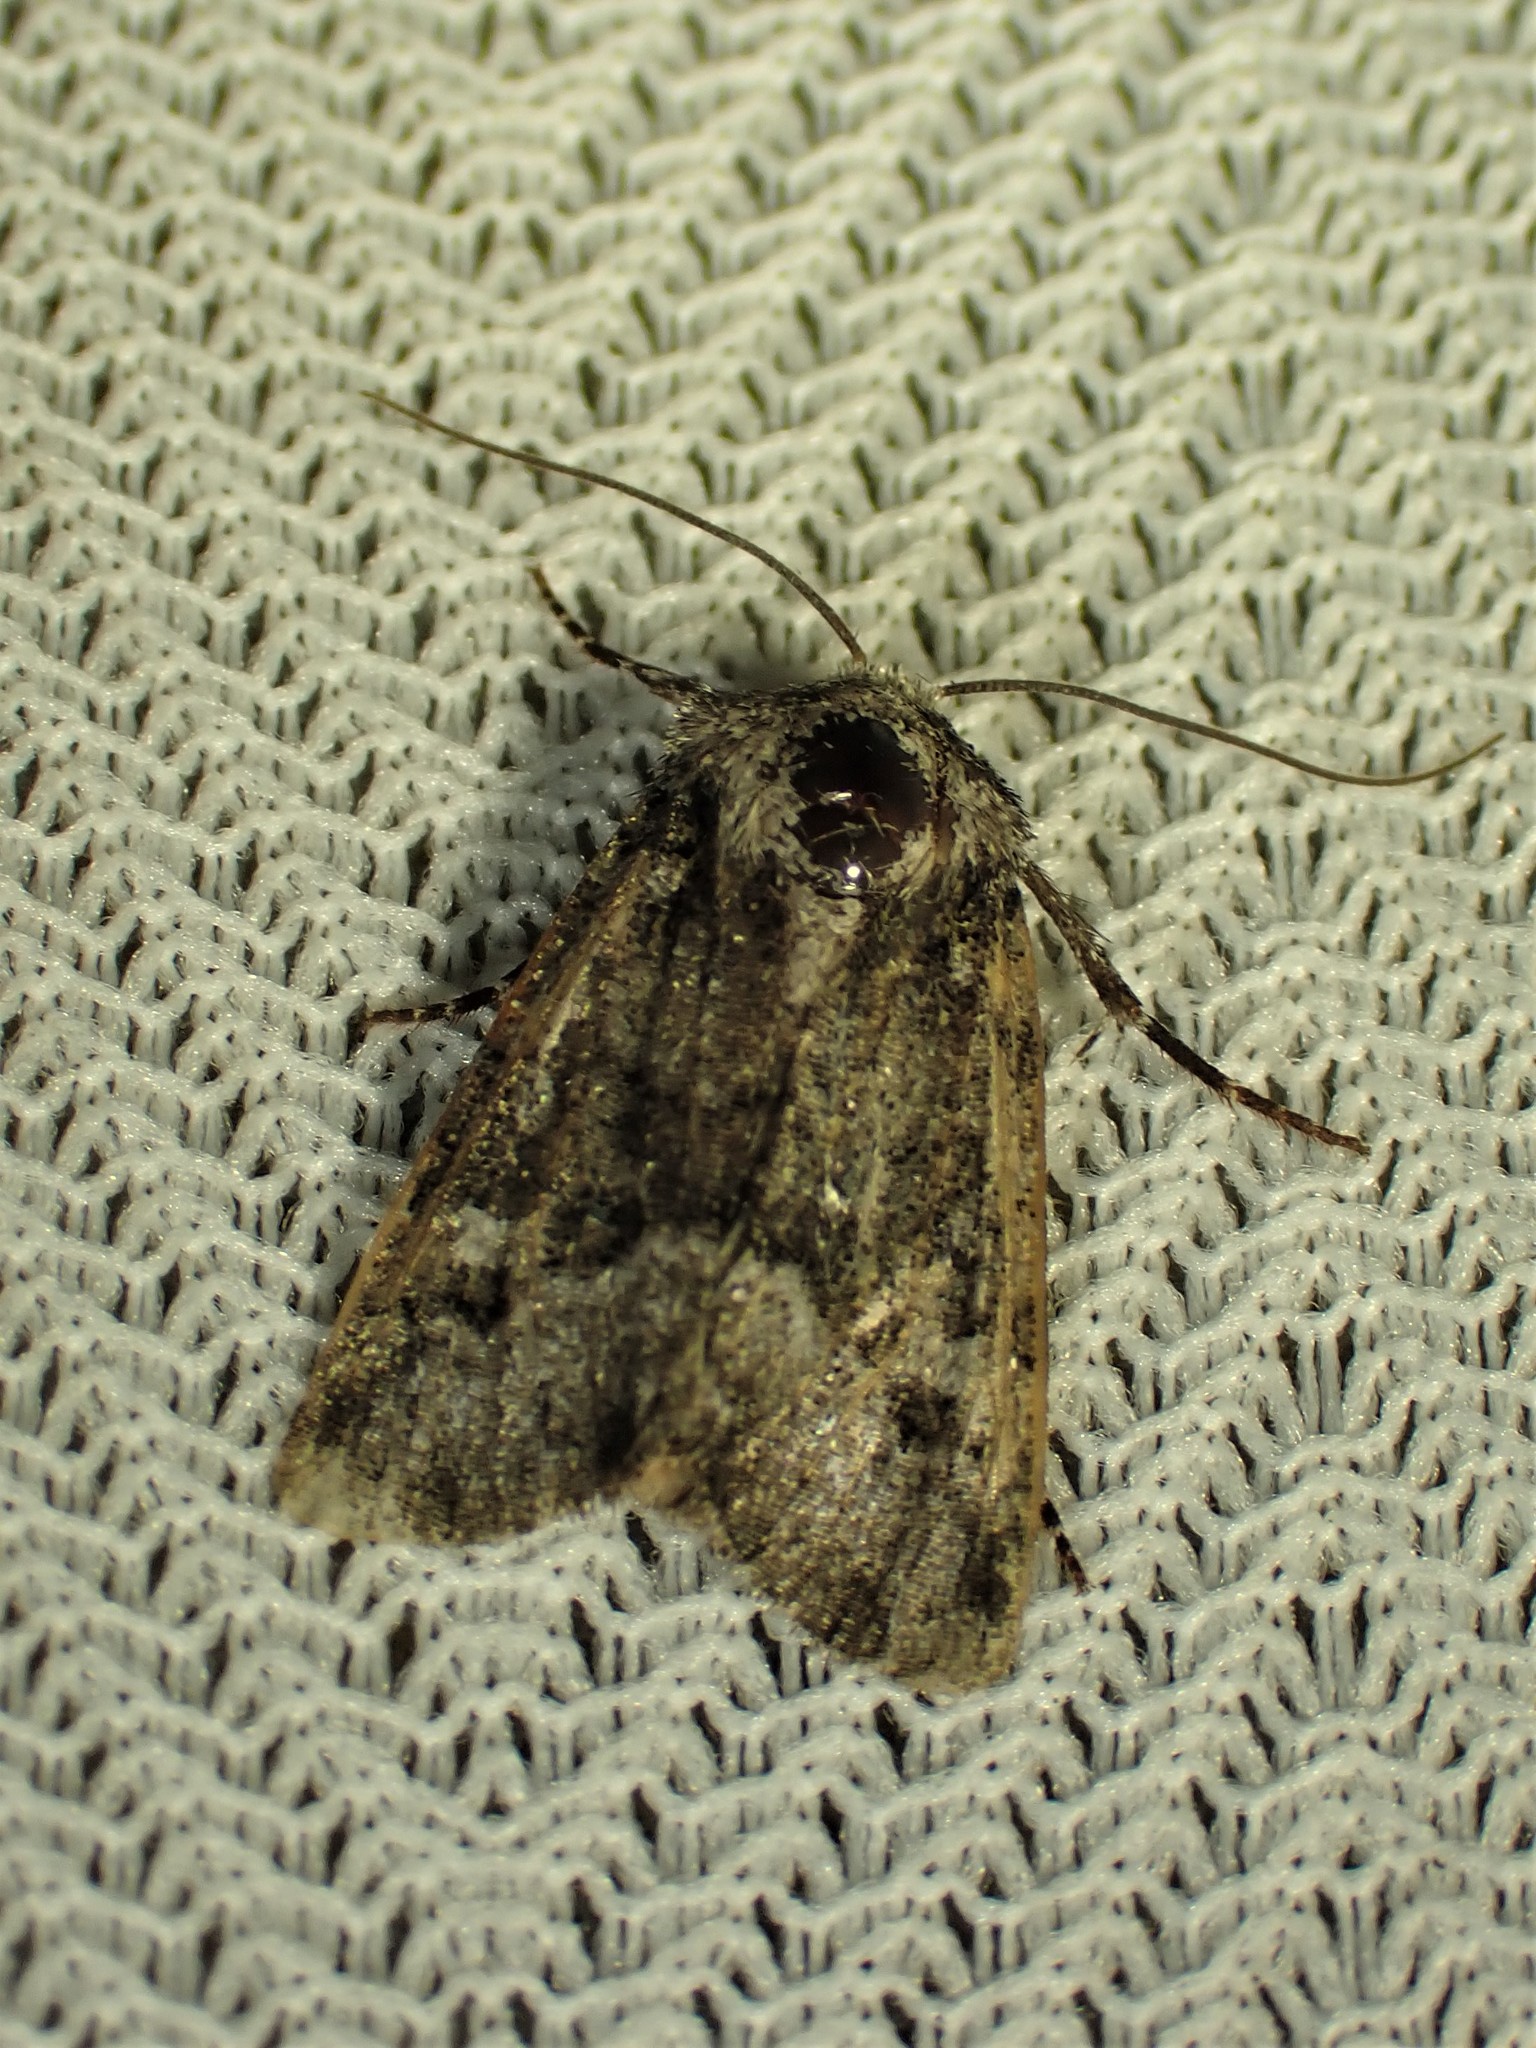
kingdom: Animalia
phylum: Arthropoda
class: Insecta
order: Lepidoptera
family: Noctuidae
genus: Lacinipolia
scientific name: Lacinipolia olivacea
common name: Olive arches moth
